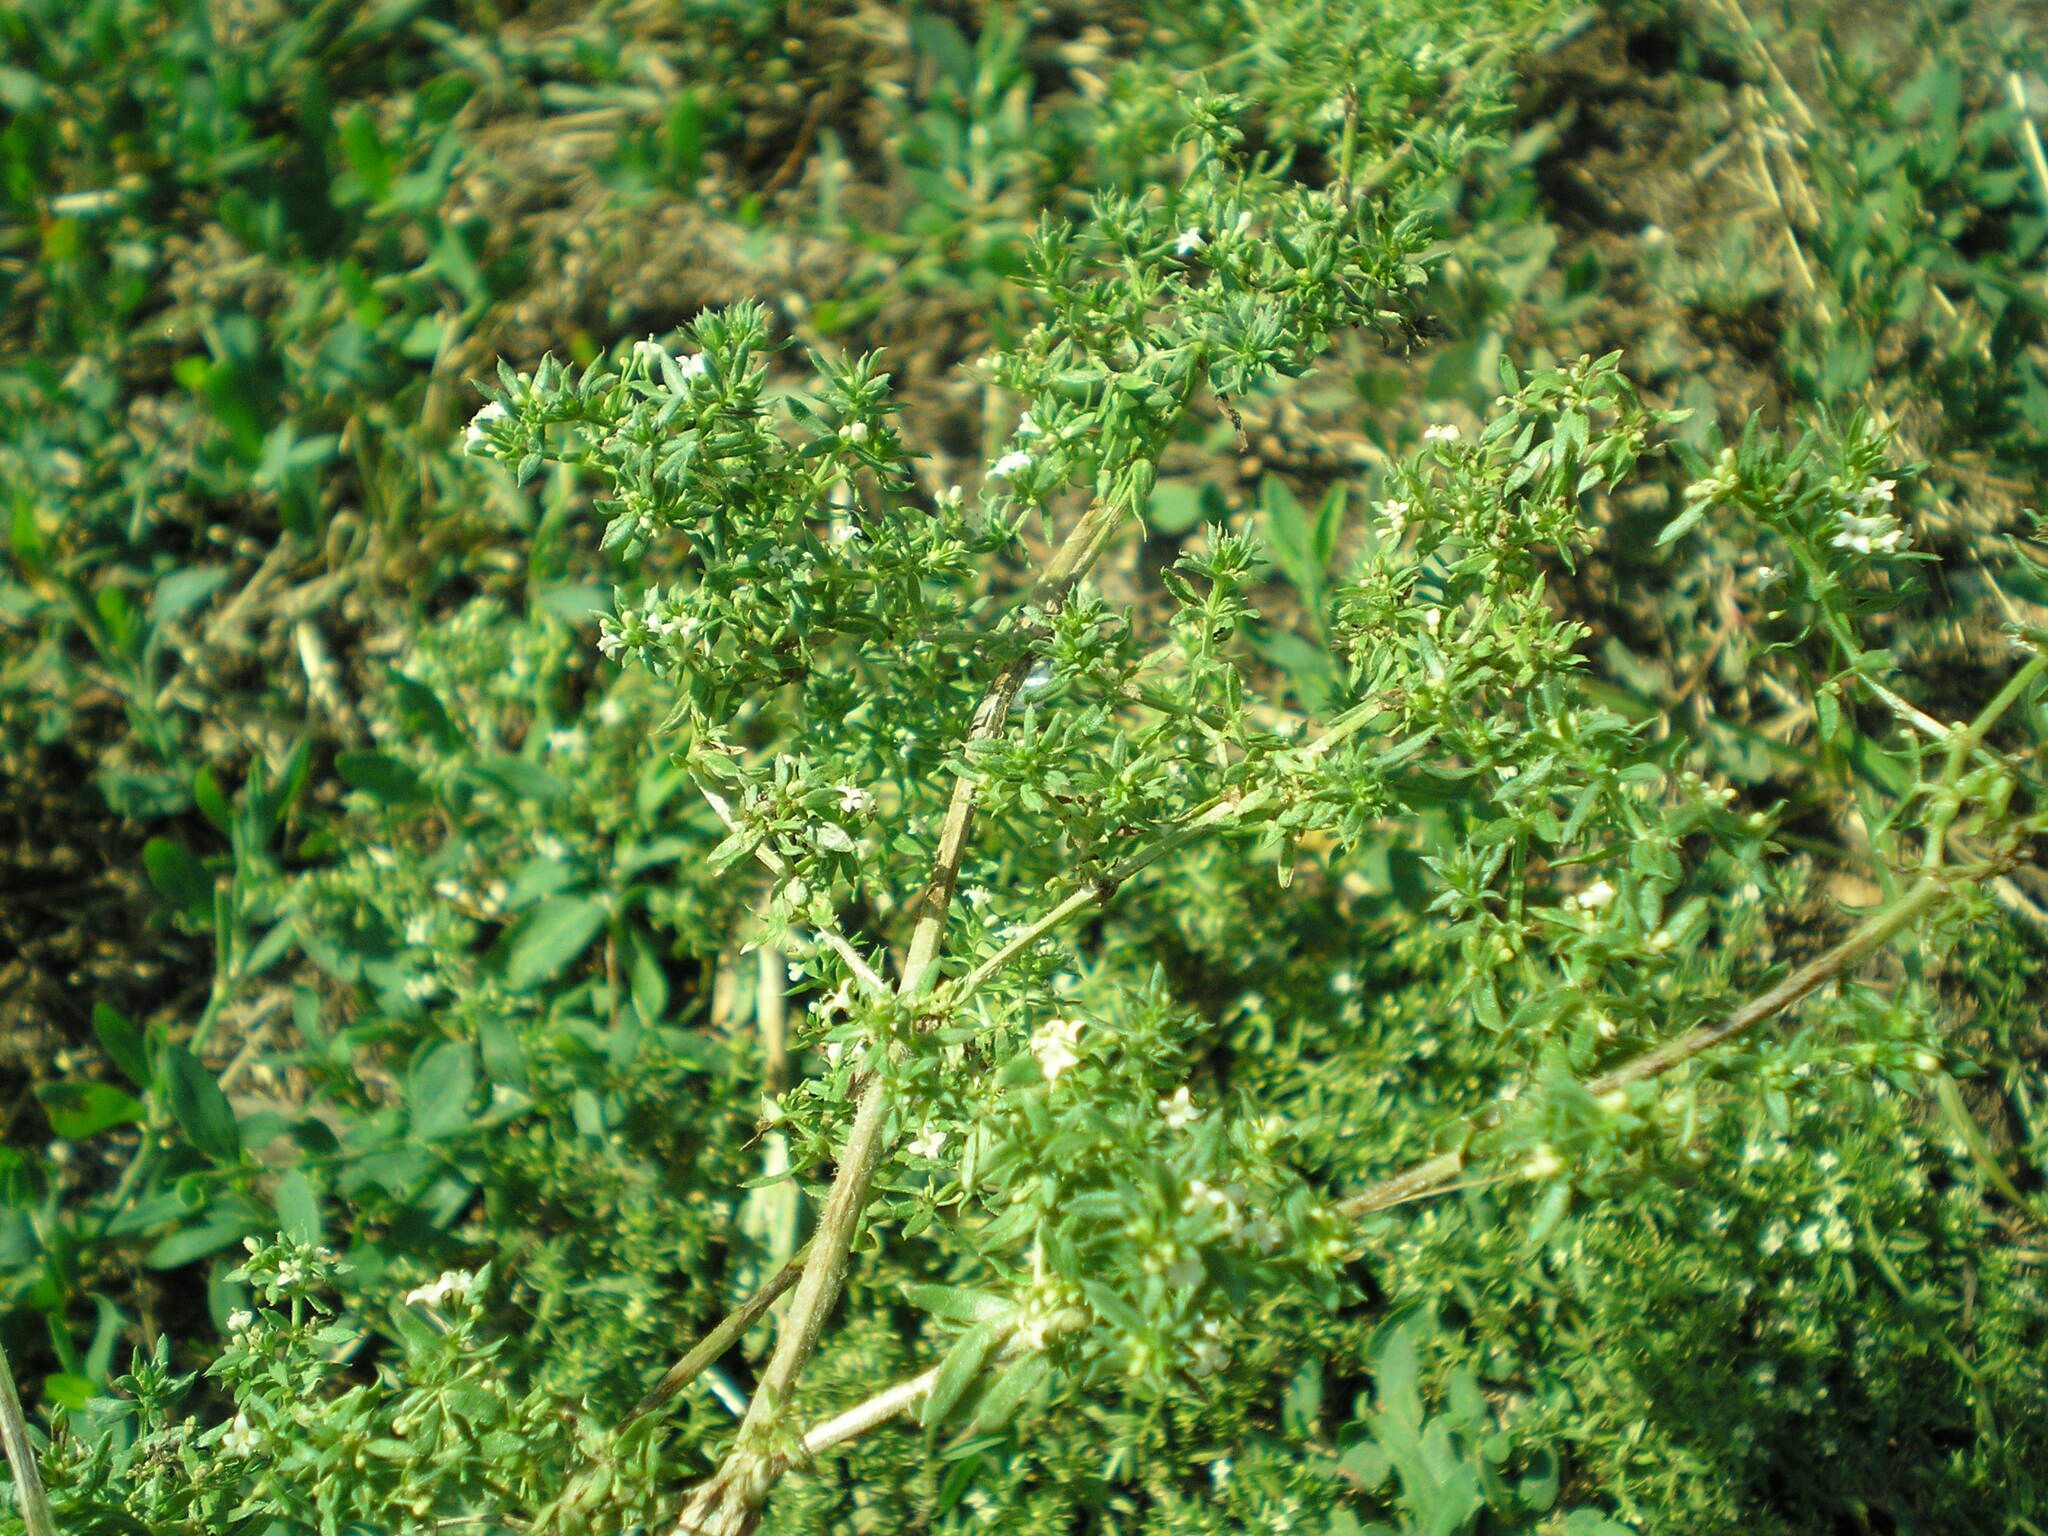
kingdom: Plantae
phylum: Tracheophyta
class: Magnoliopsida
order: Gentianales
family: Rubiaceae
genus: Galium
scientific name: Galium humifusum
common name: Spreading bedstraw
